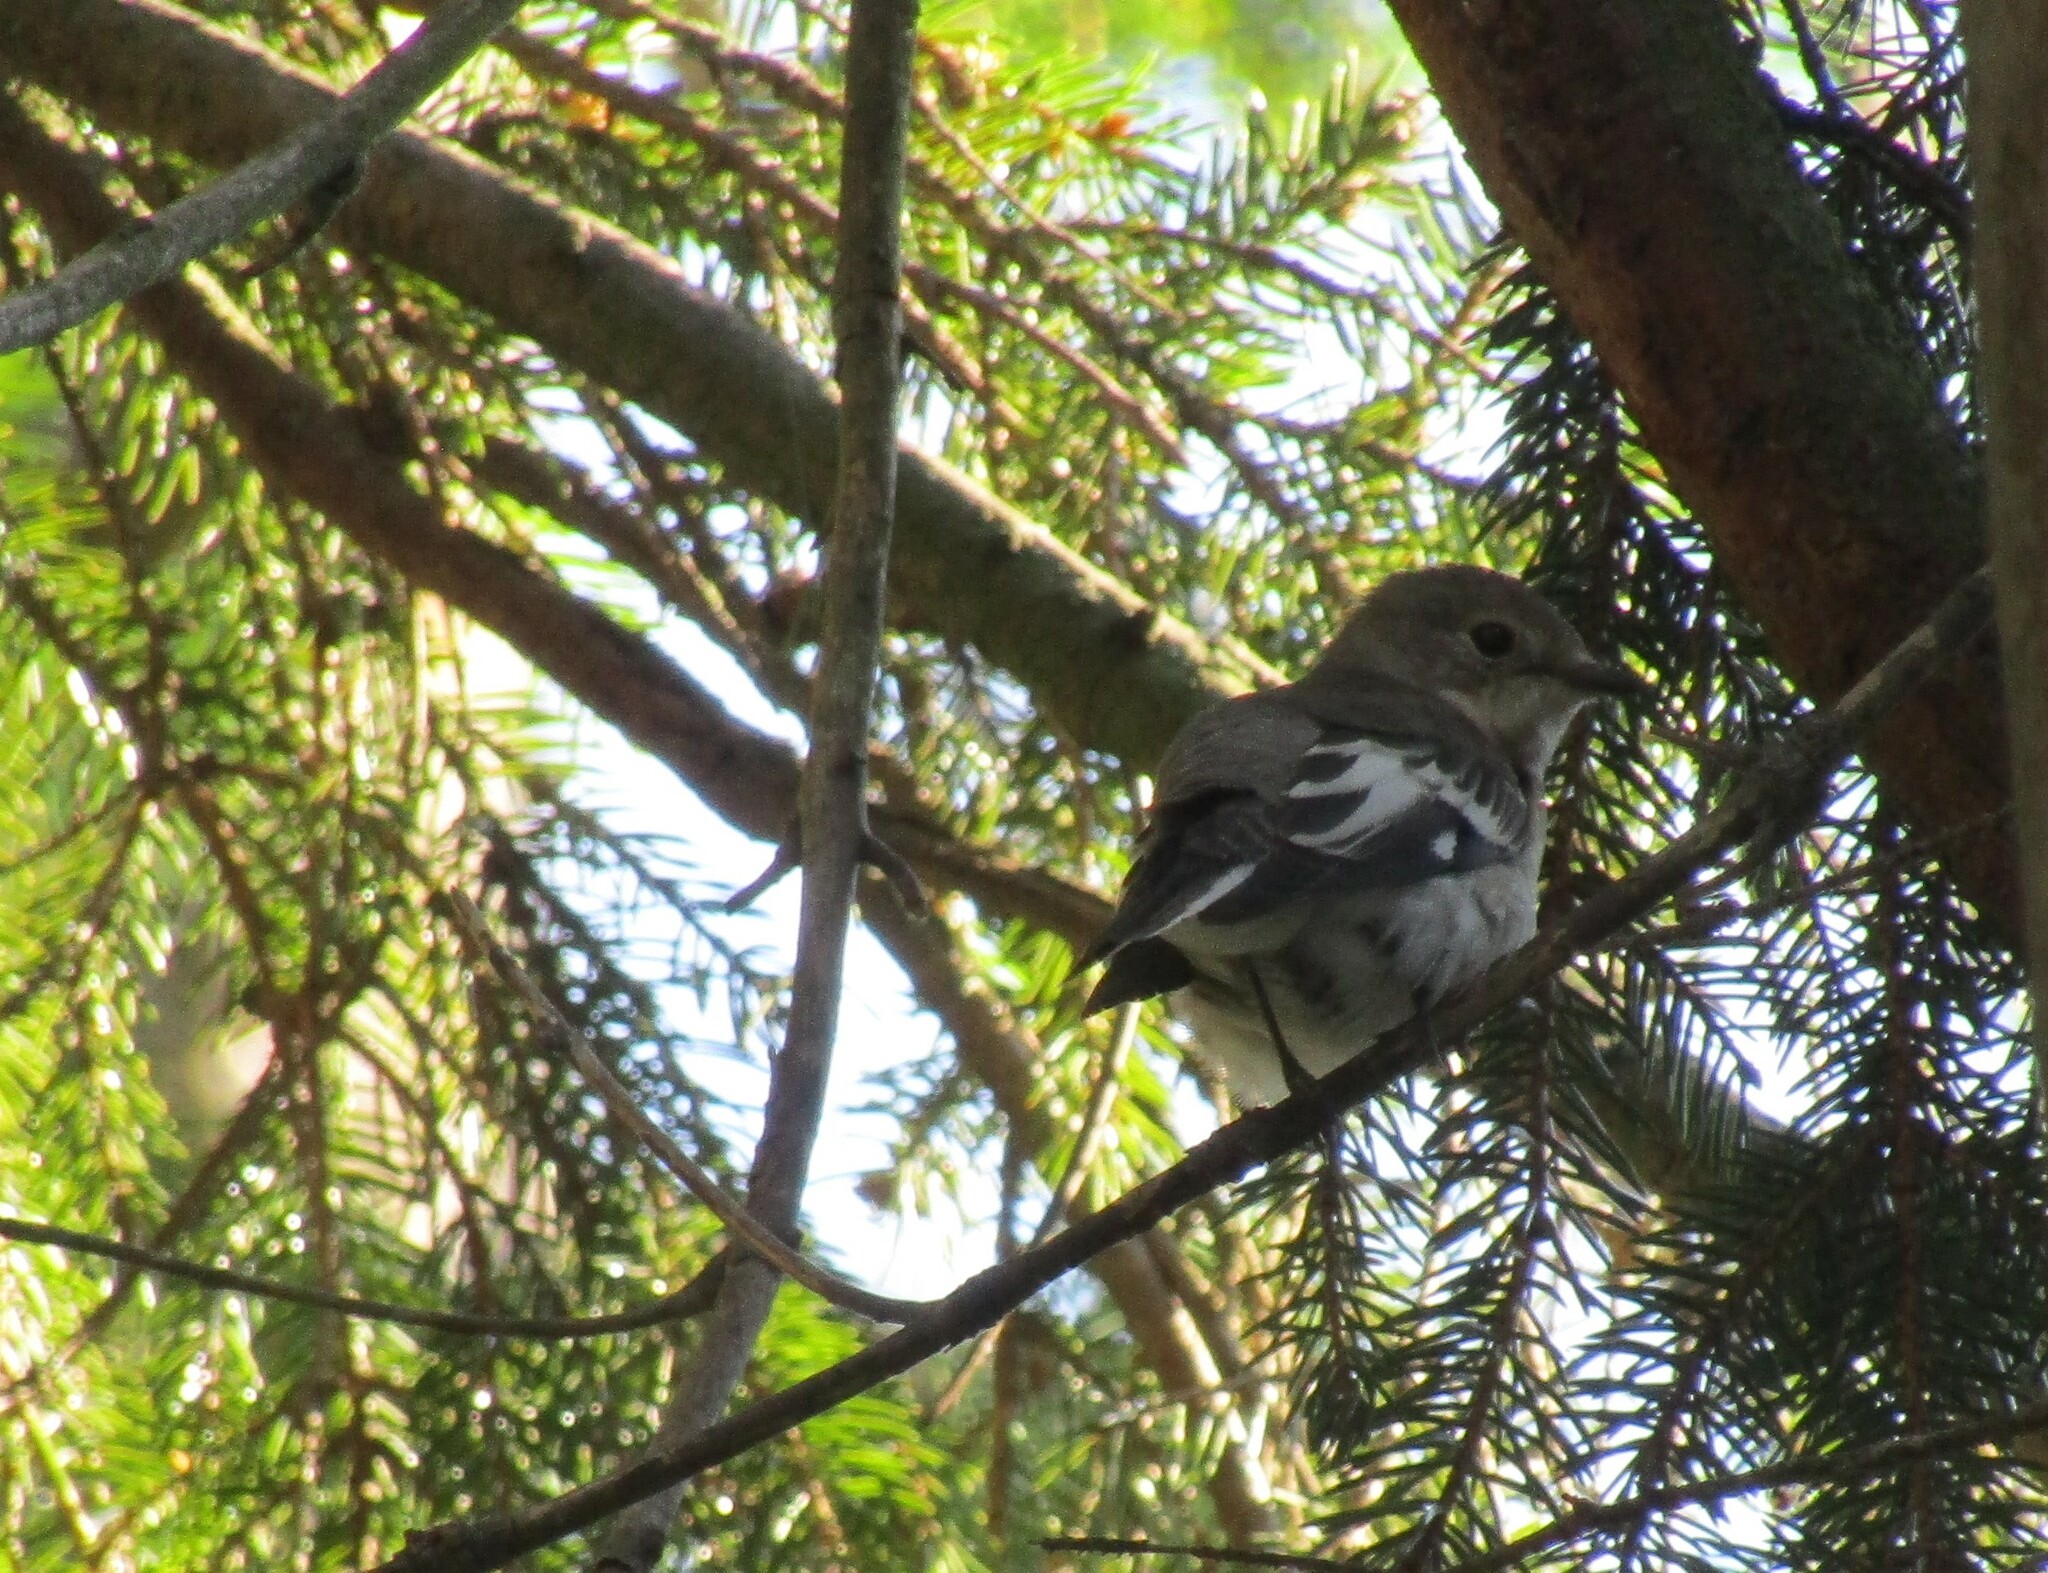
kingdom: Animalia
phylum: Chordata
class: Aves
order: Passeriformes
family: Muscicapidae
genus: Ficedula
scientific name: Ficedula albicollis
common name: Collared flycatcher
